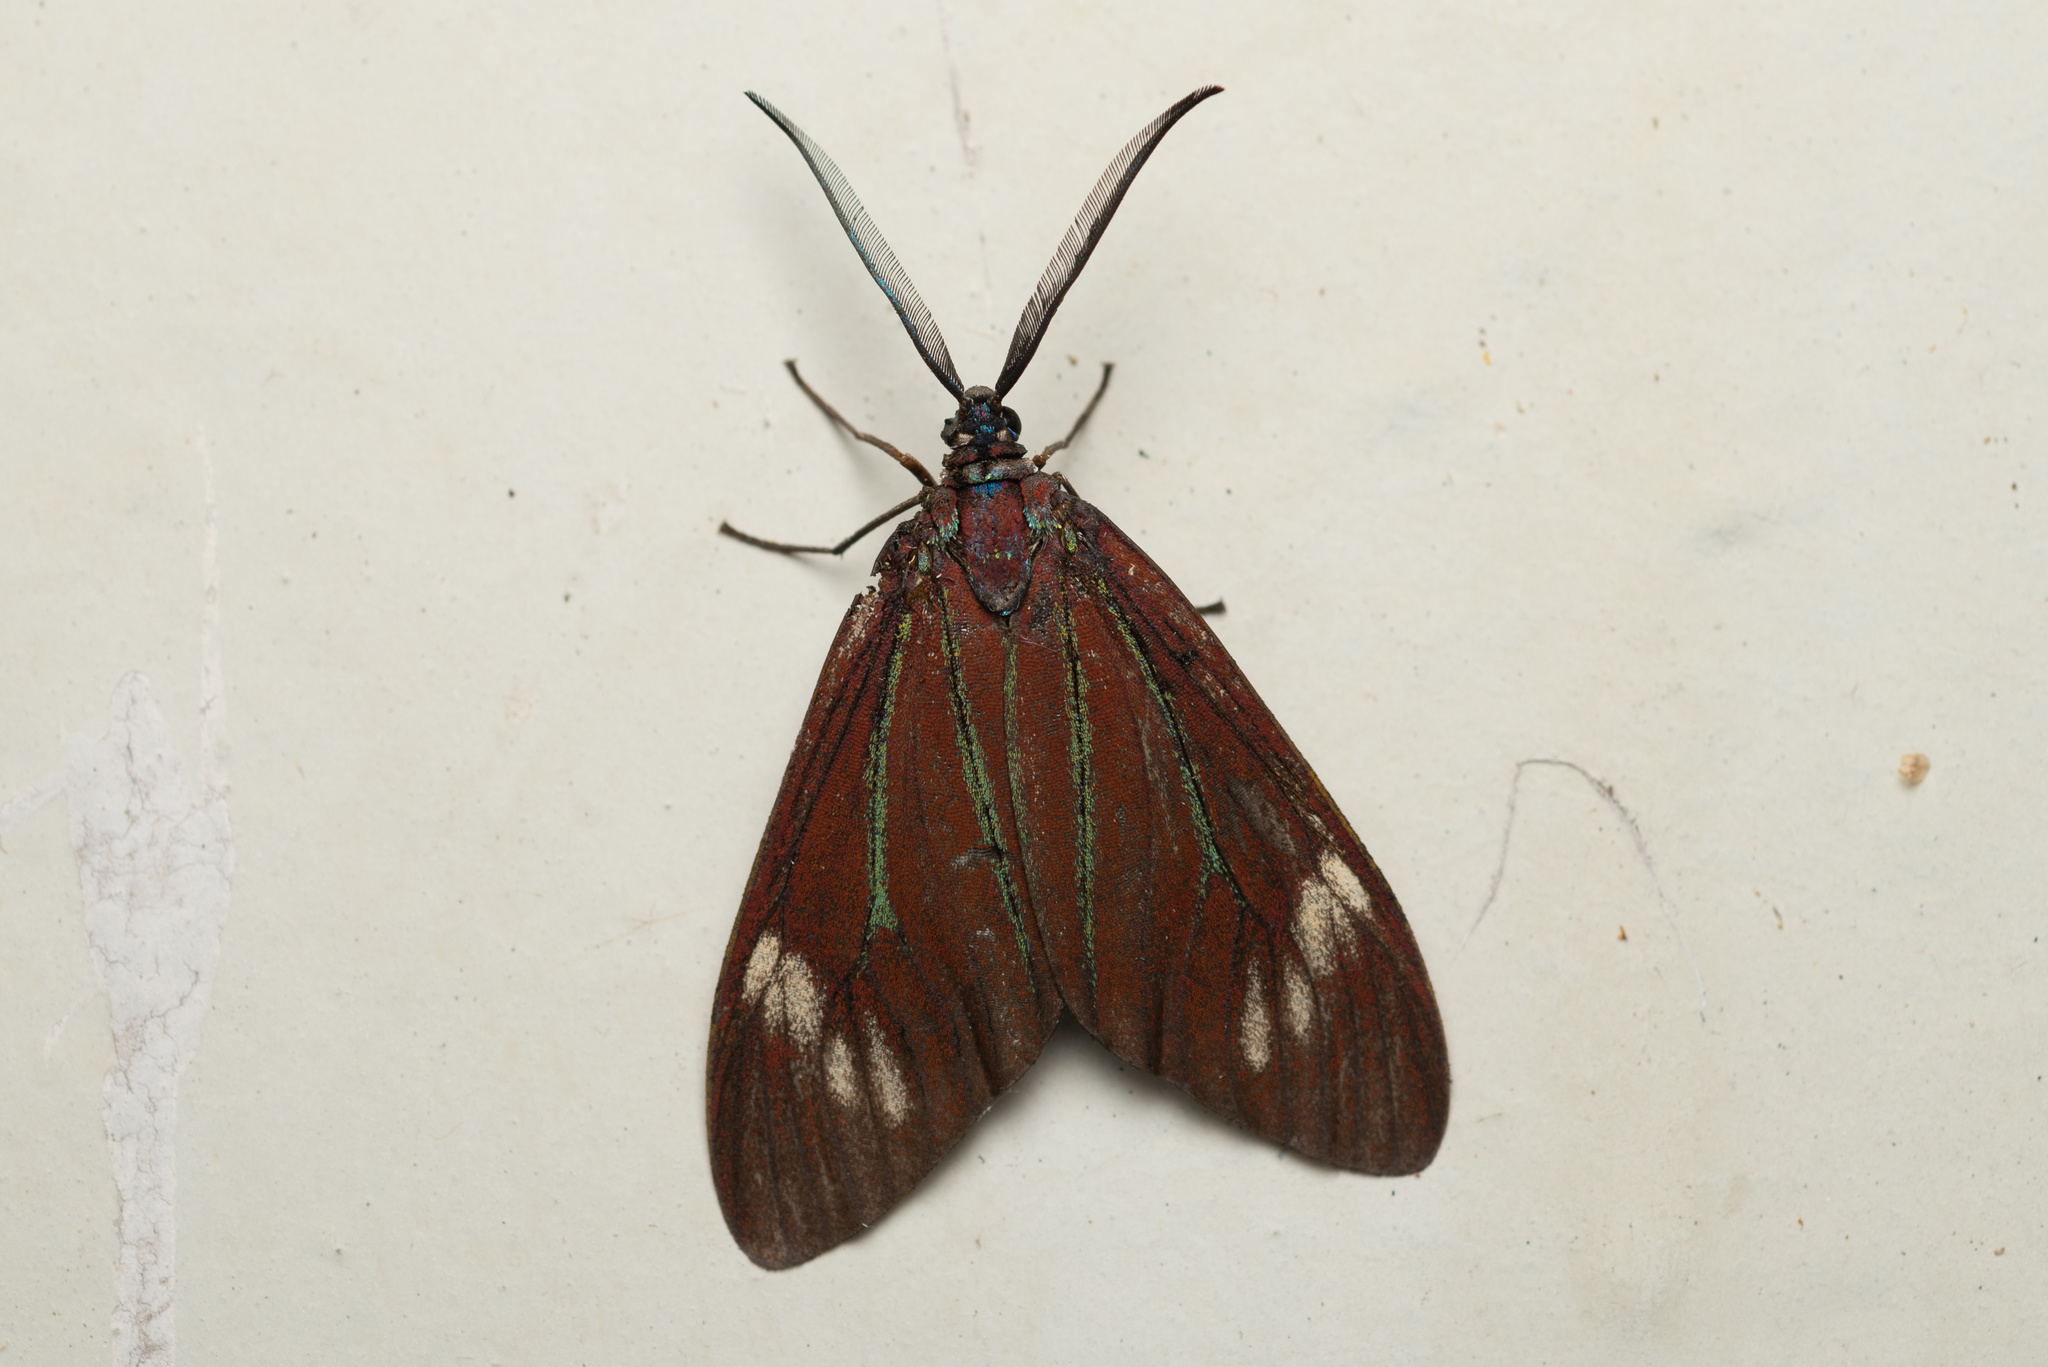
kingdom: Animalia
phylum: Arthropoda
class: Insecta
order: Lepidoptera
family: Zygaenidae
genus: Cyclosia
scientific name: Cyclosia papilionaris
